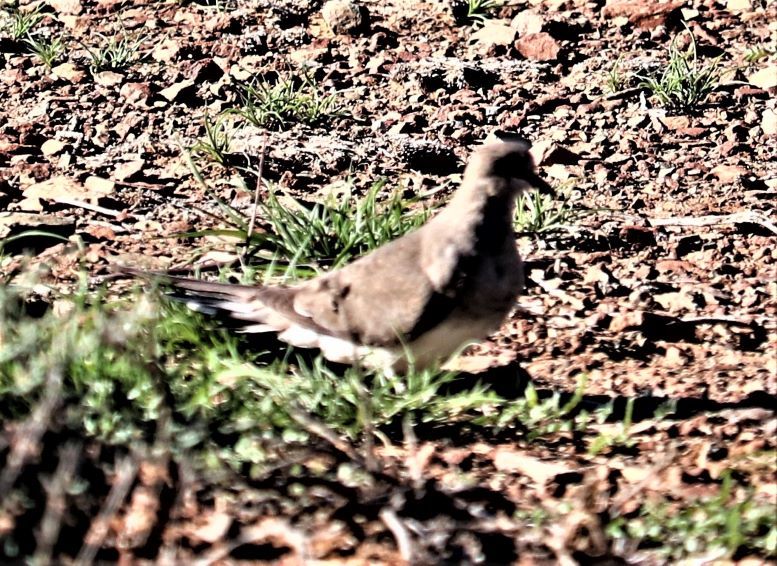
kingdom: Animalia
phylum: Chordata
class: Aves
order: Columbiformes
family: Columbidae
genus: Oena
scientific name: Oena capensis
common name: Namaqua dove
